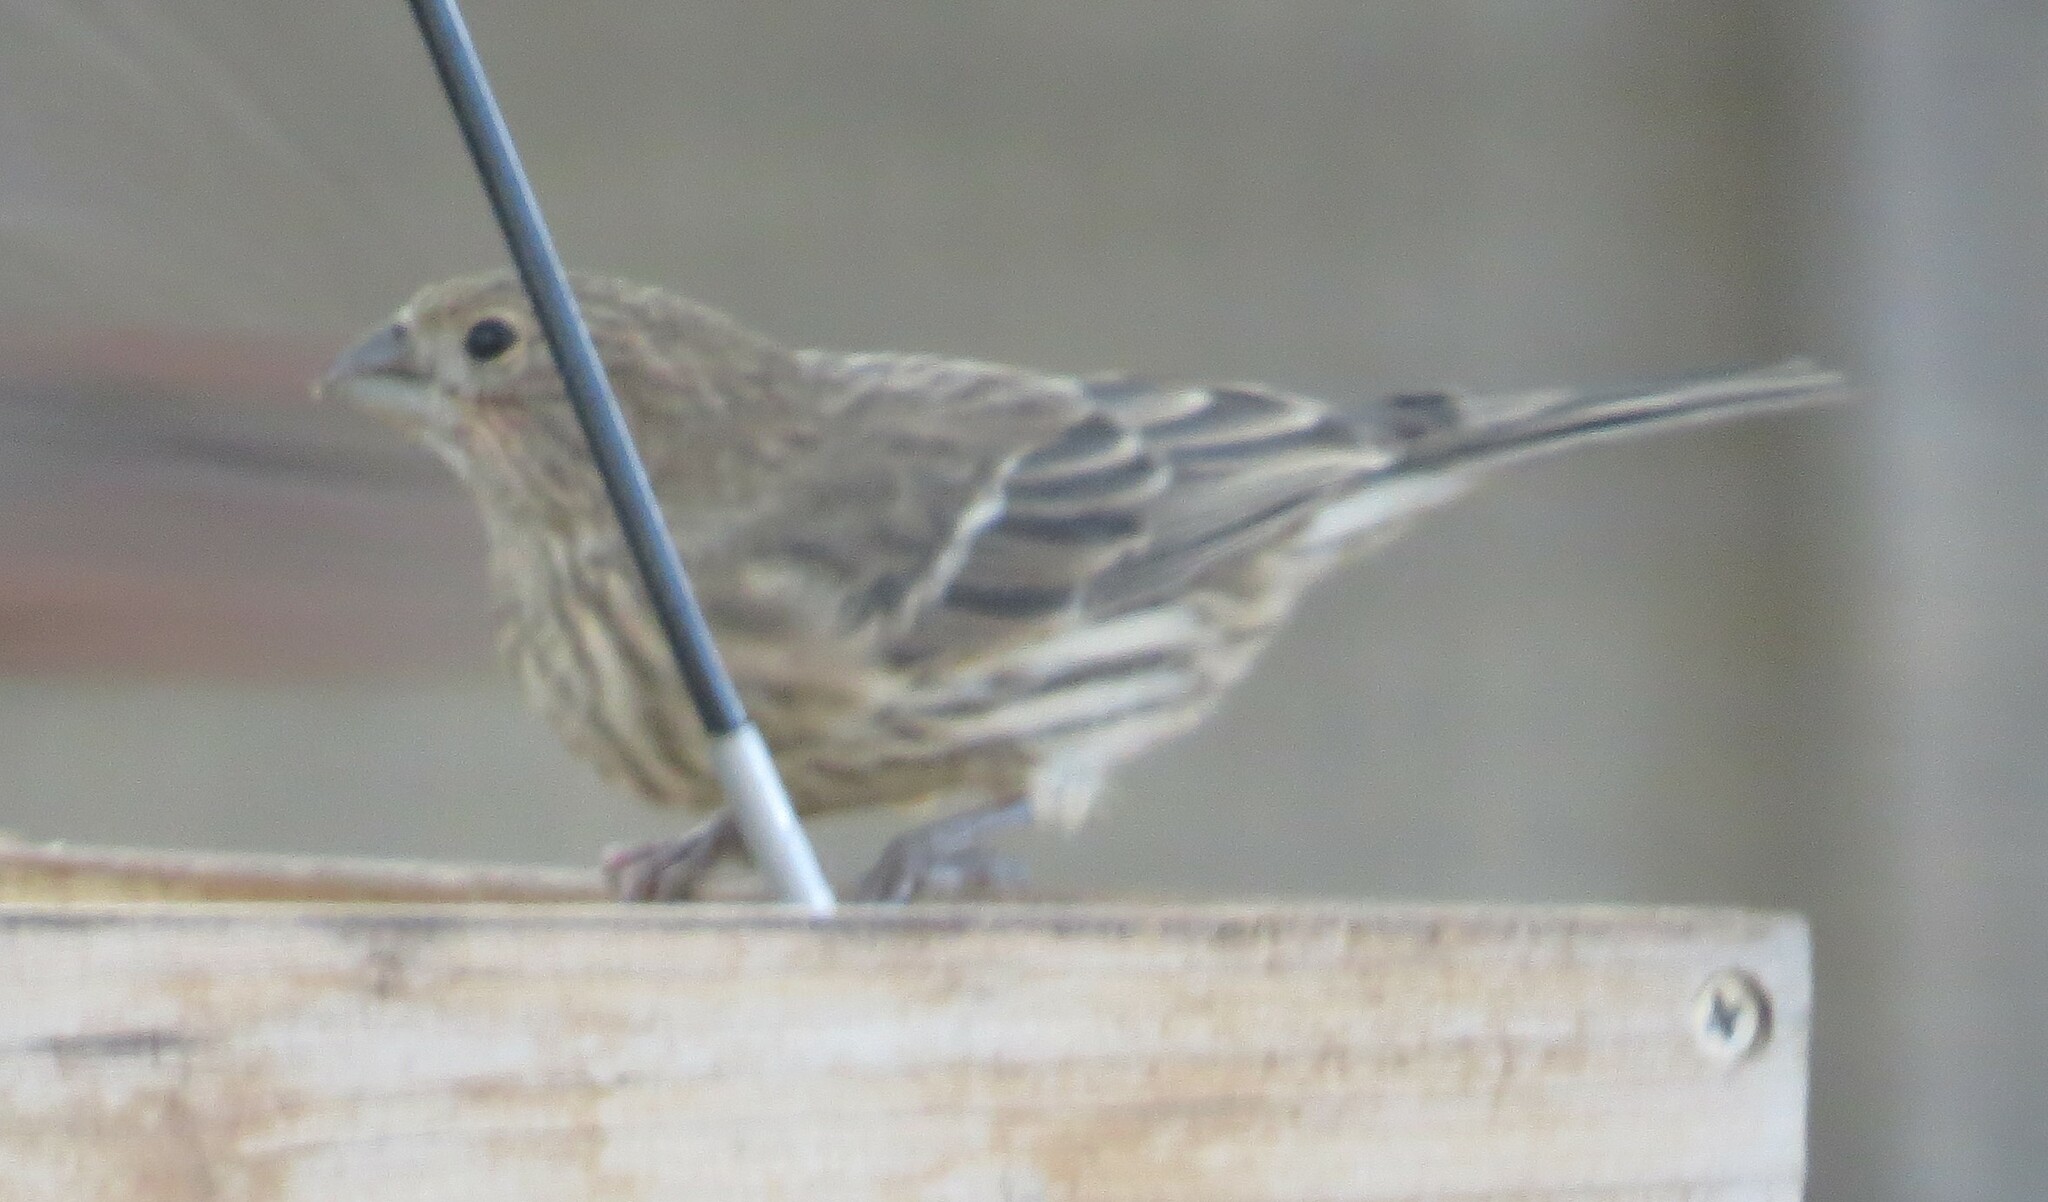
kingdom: Animalia
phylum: Chordata
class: Aves
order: Passeriformes
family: Fringillidae
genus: Haemorhous
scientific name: Haemorhous mexicanus
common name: House finch
